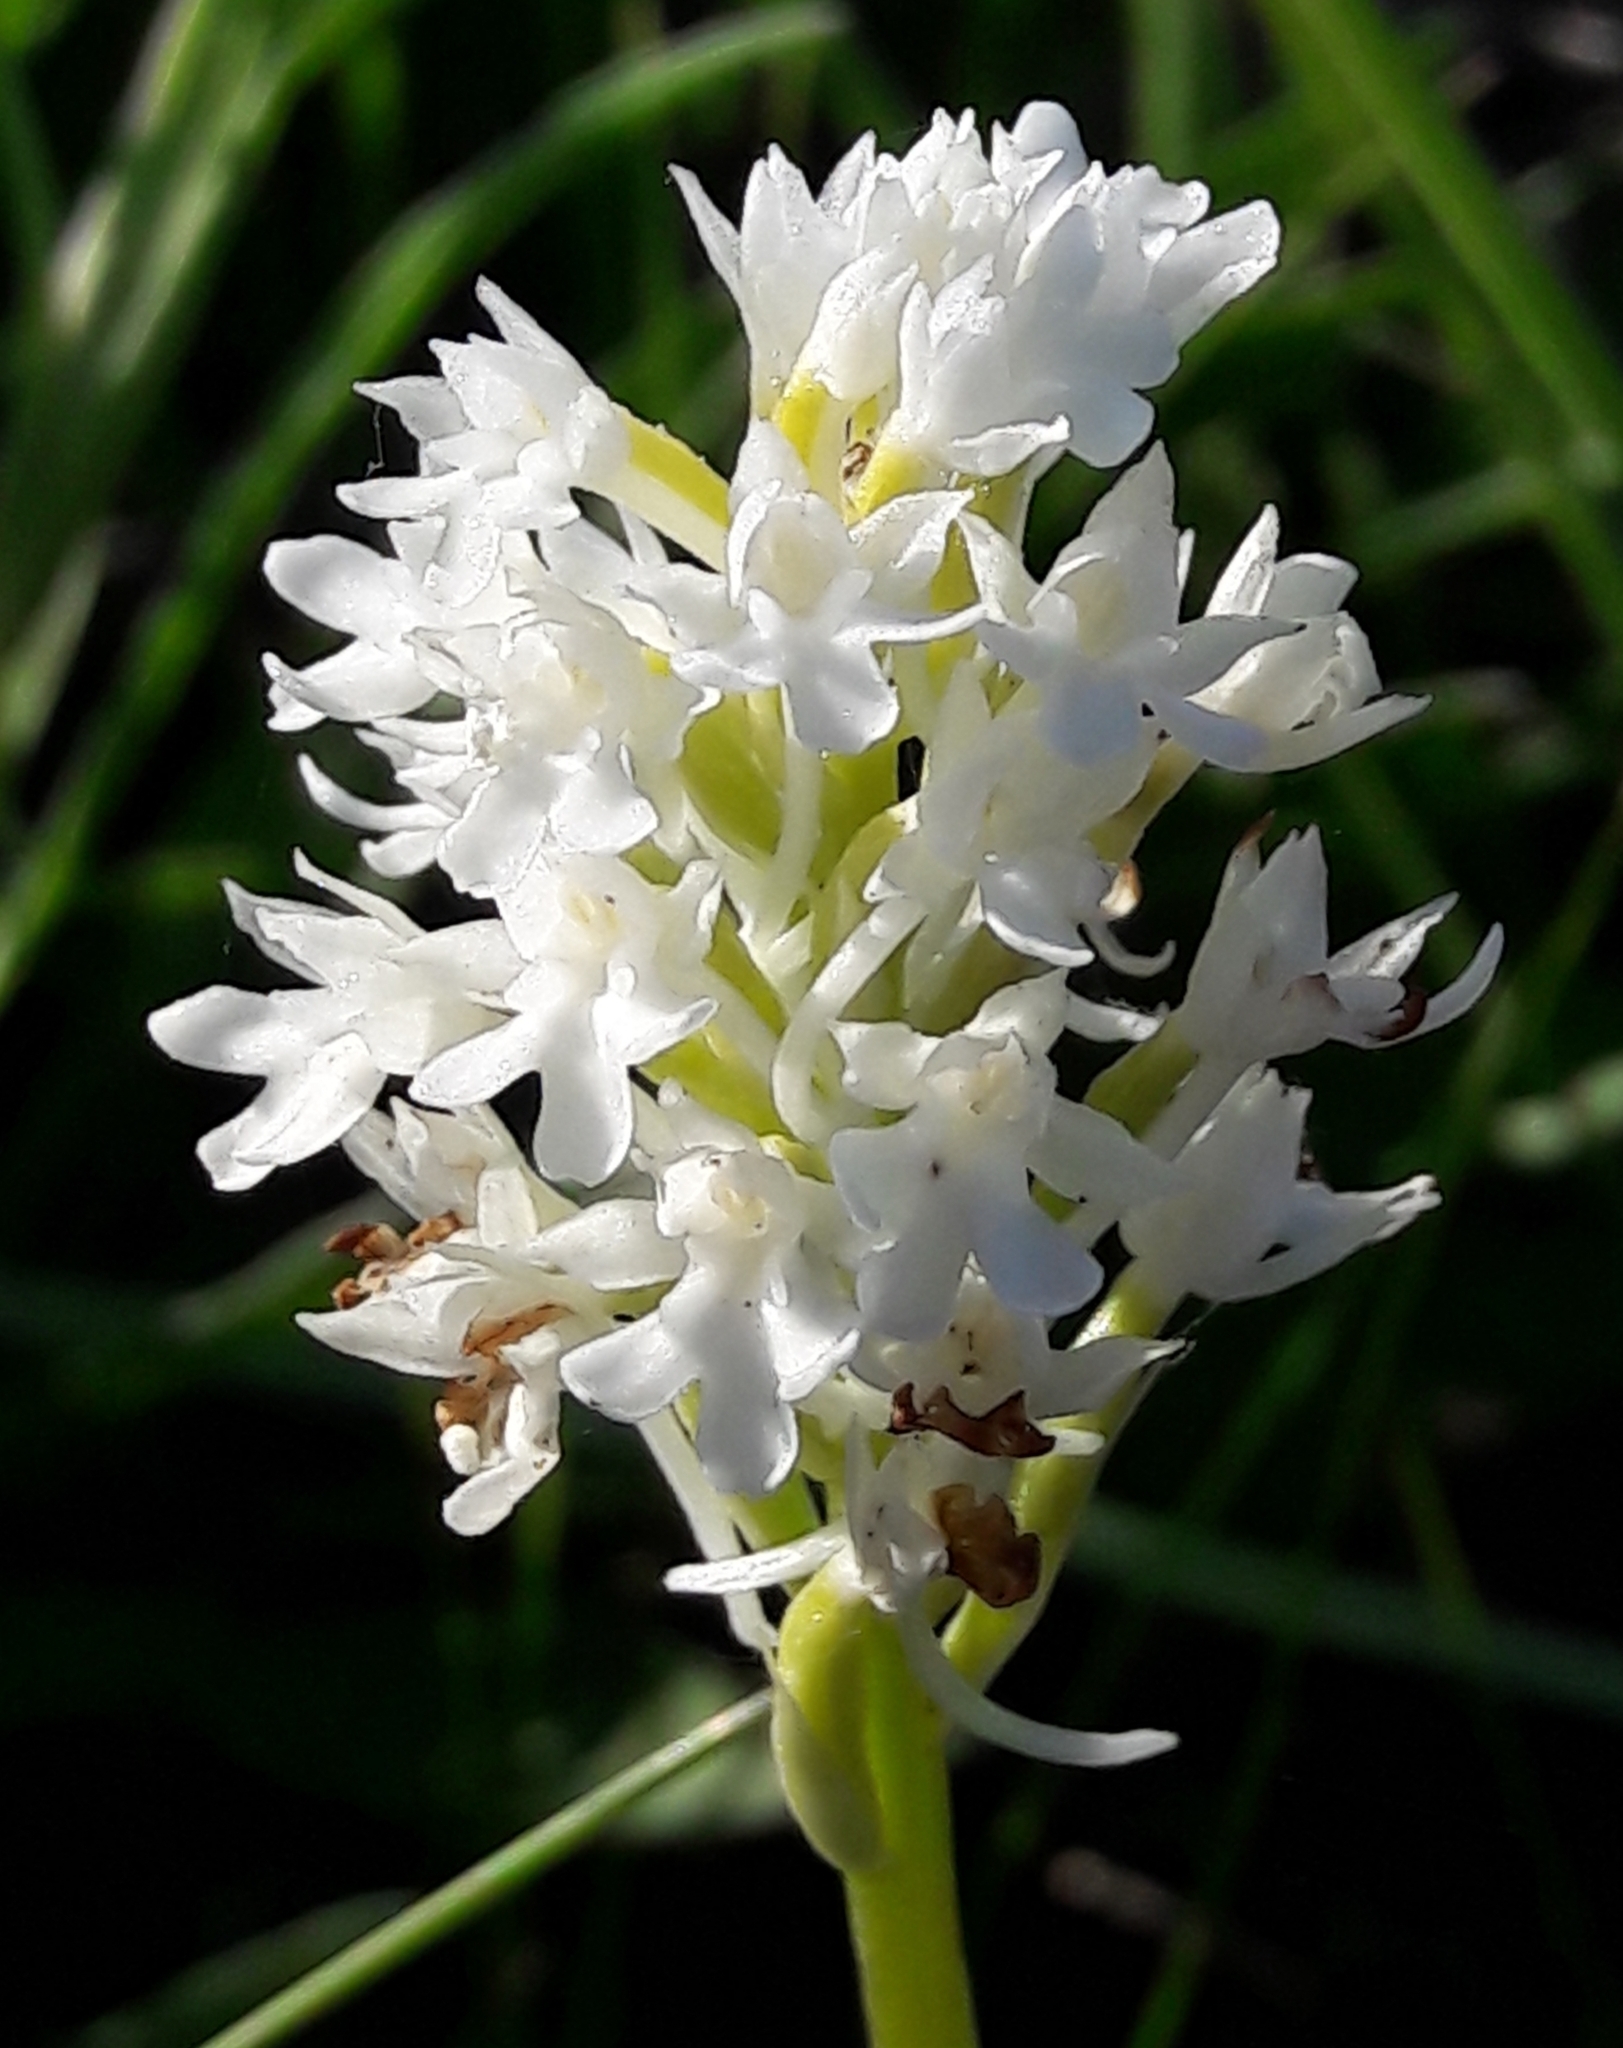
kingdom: Plantae
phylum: Tracheophyta
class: Liliopsida
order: Asparagales
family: Orchidaceae
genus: Anacamptis
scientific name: Anacamptis pyramidalis
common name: Pyramidal orchid
